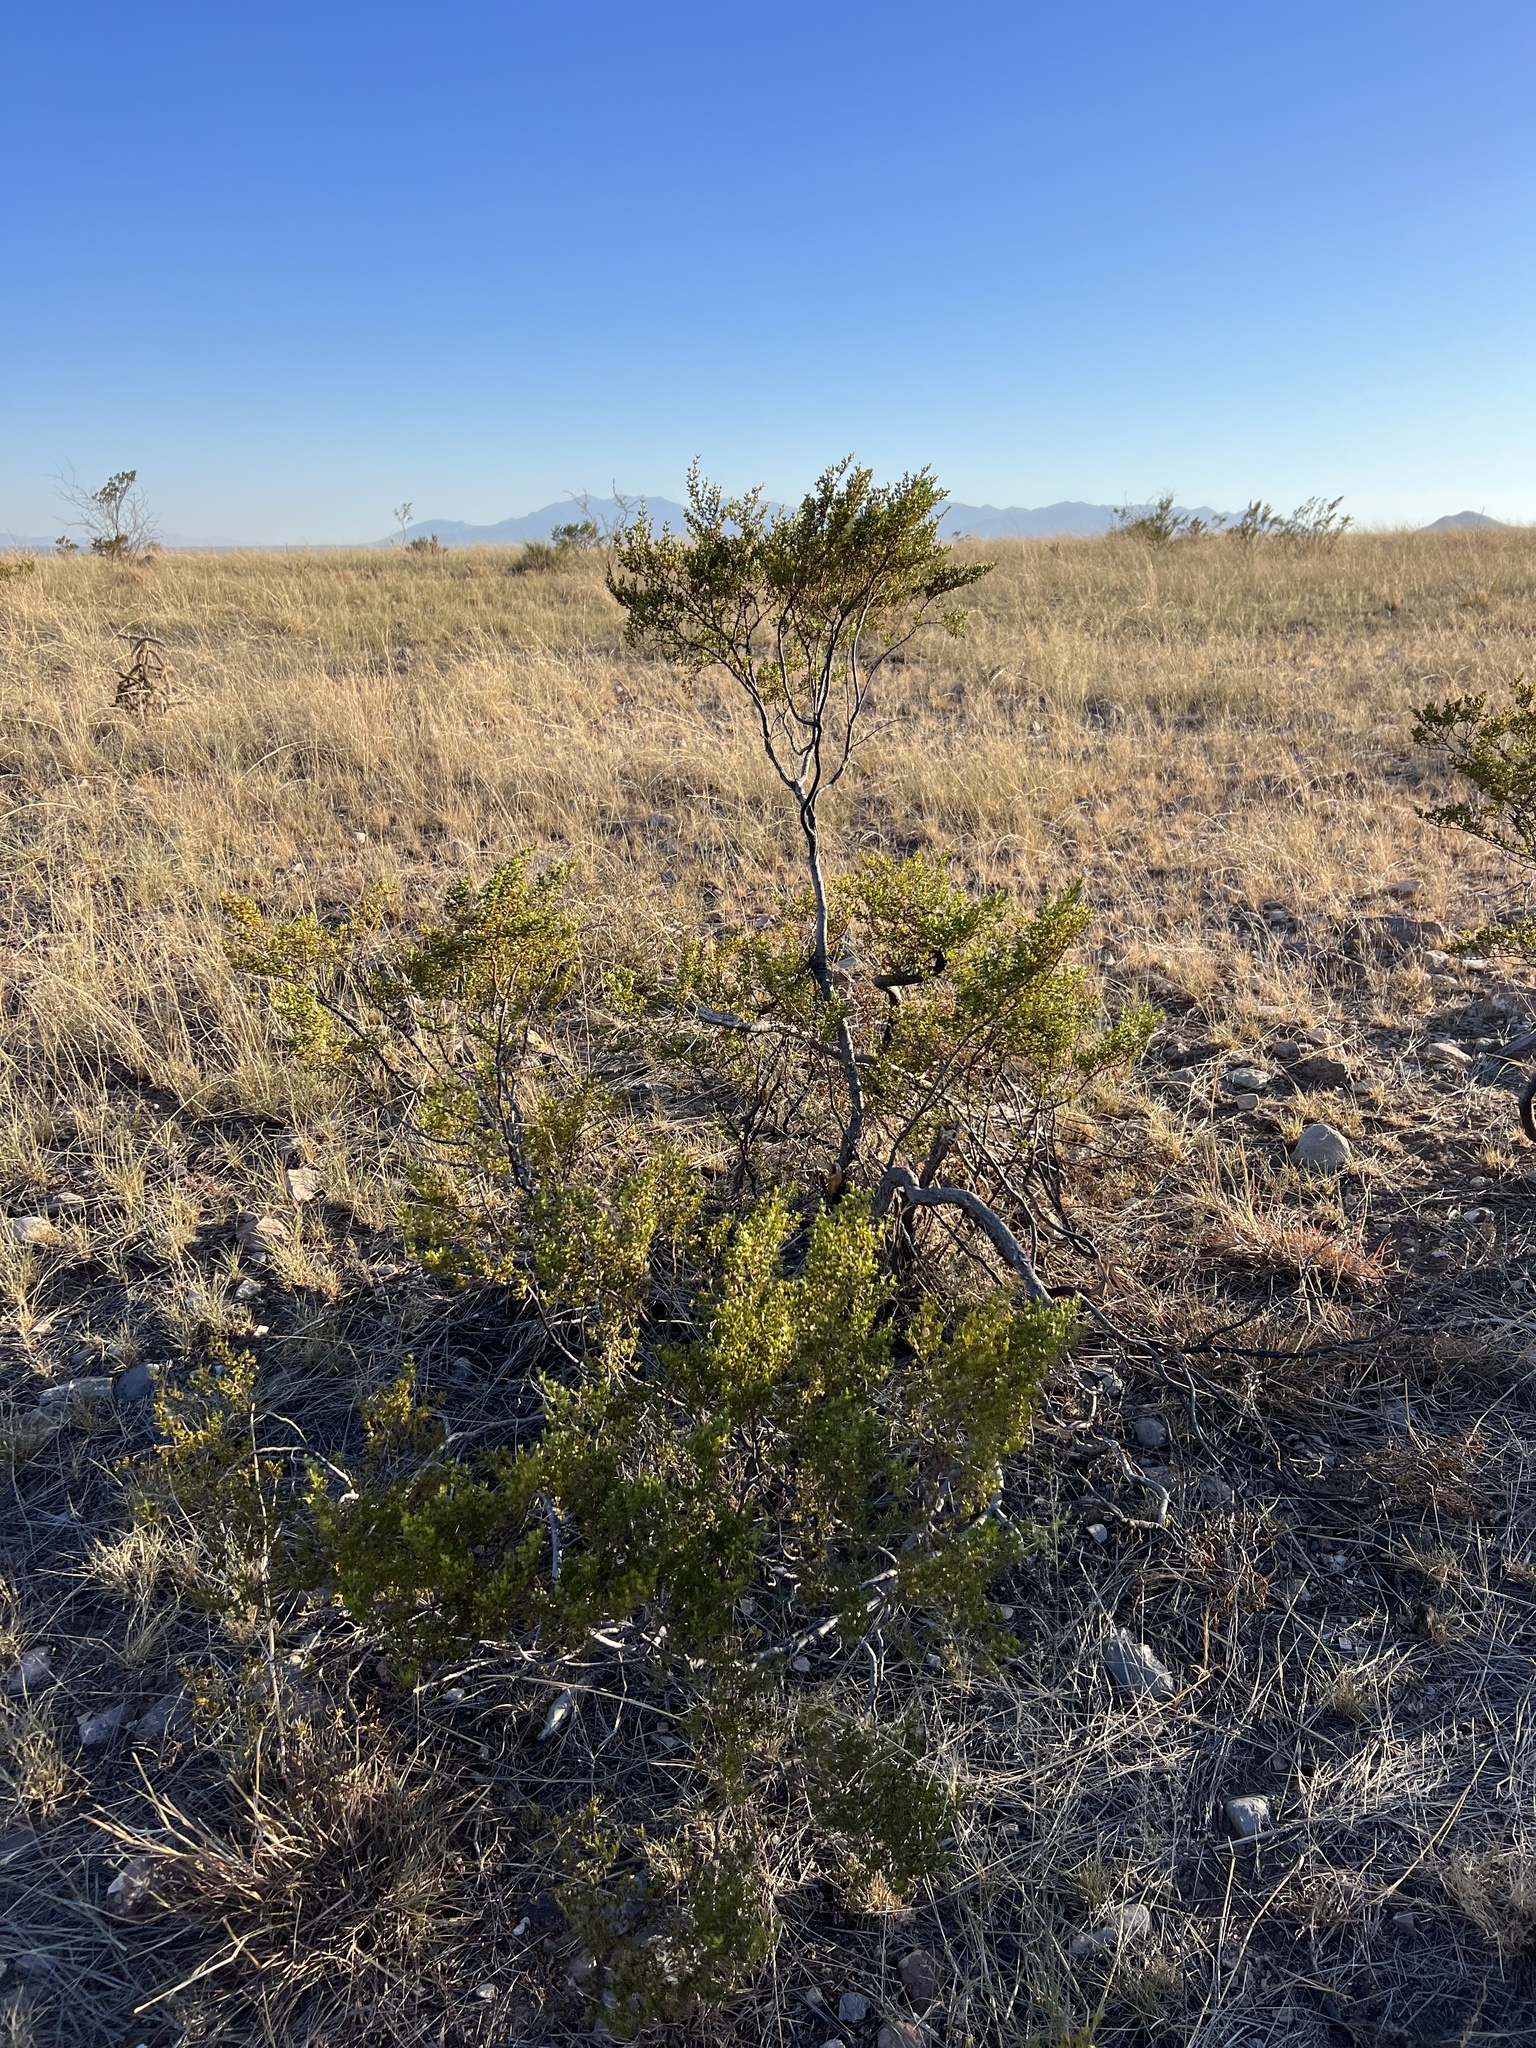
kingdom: Plantae
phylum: Tracheophyta
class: Magnoliopsida
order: Zygophyllales
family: Zygophyllaceae
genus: Larrea
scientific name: Larrea tridentata
